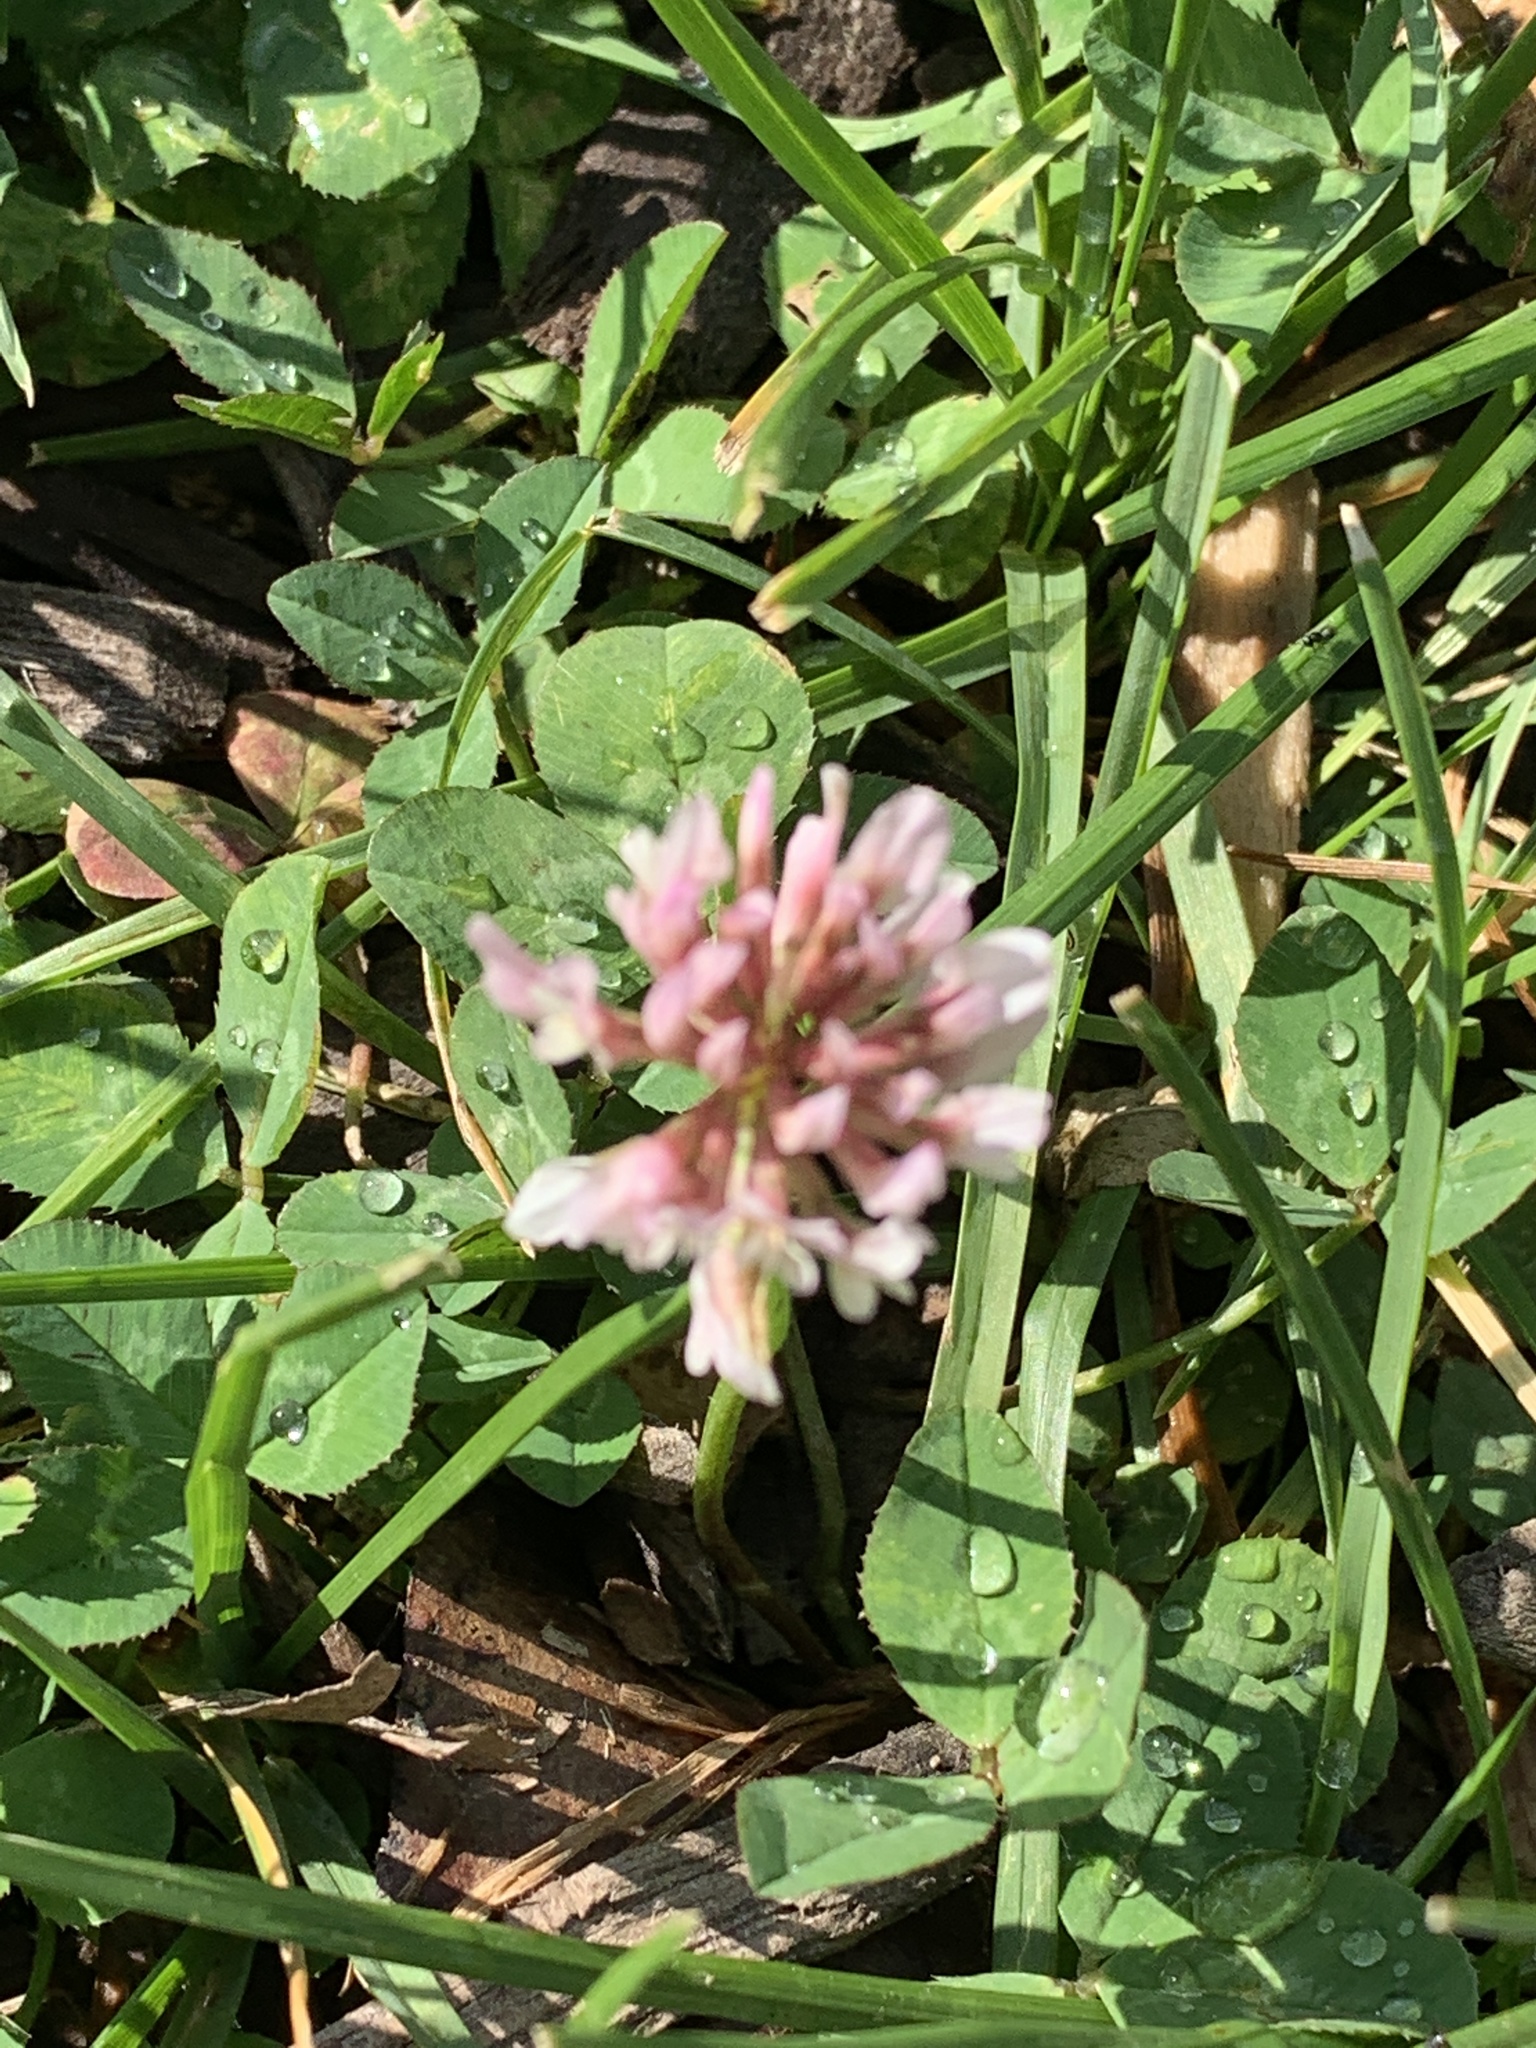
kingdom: Plantae
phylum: Tracheophyta
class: Magnoliopsida
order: Fabales
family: Fabaceae
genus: Trifolium
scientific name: Trifolium repens
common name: White clover
